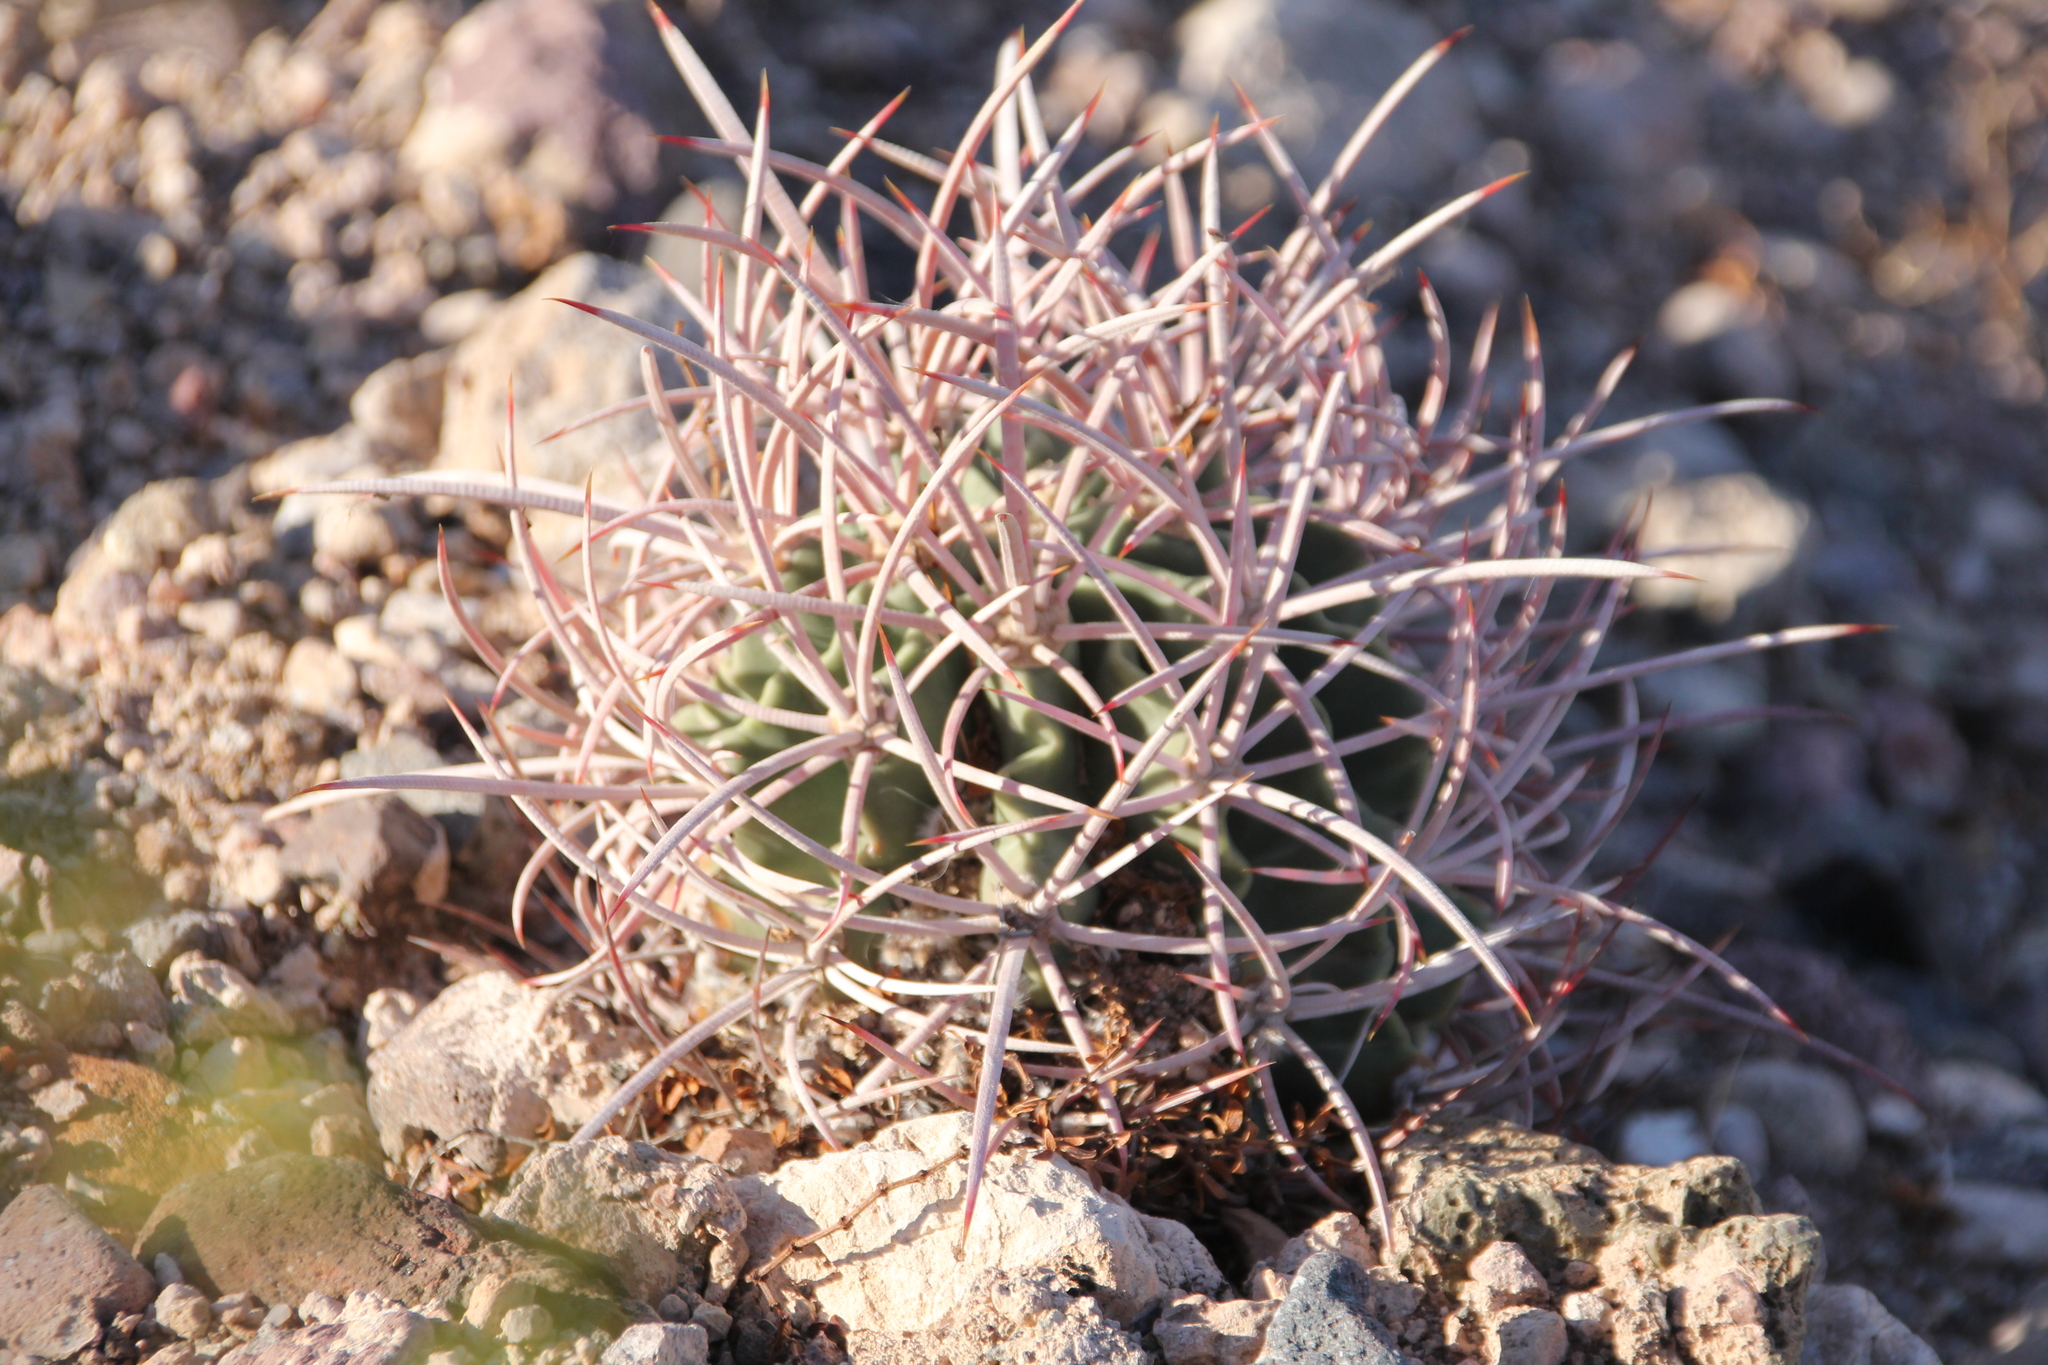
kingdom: Plantae
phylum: Tracheophyta
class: Magnoliopsida
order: Caryophyllales
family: Cactaceae
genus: Ferocactus
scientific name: Ferocactus cylindraceus
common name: California barrel cactus
